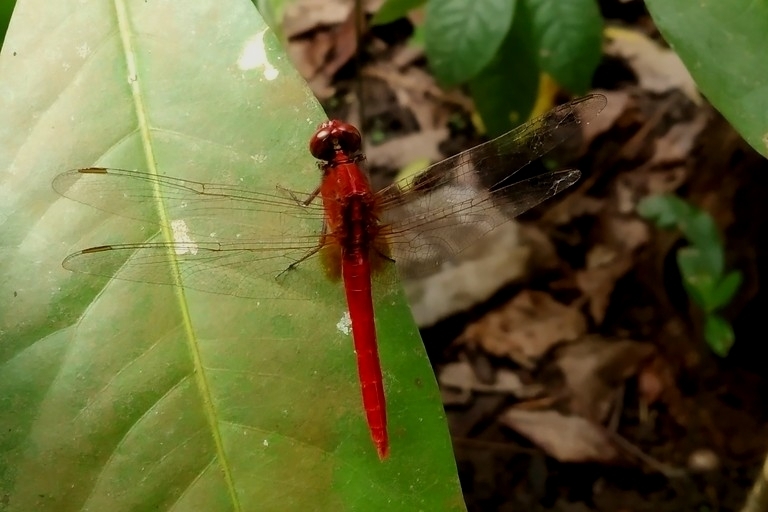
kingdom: Animalia
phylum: Arthropoda
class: Insecta
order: Odonata
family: Libellulidae
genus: Rhodothemis
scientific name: Rhodothemis rufa
